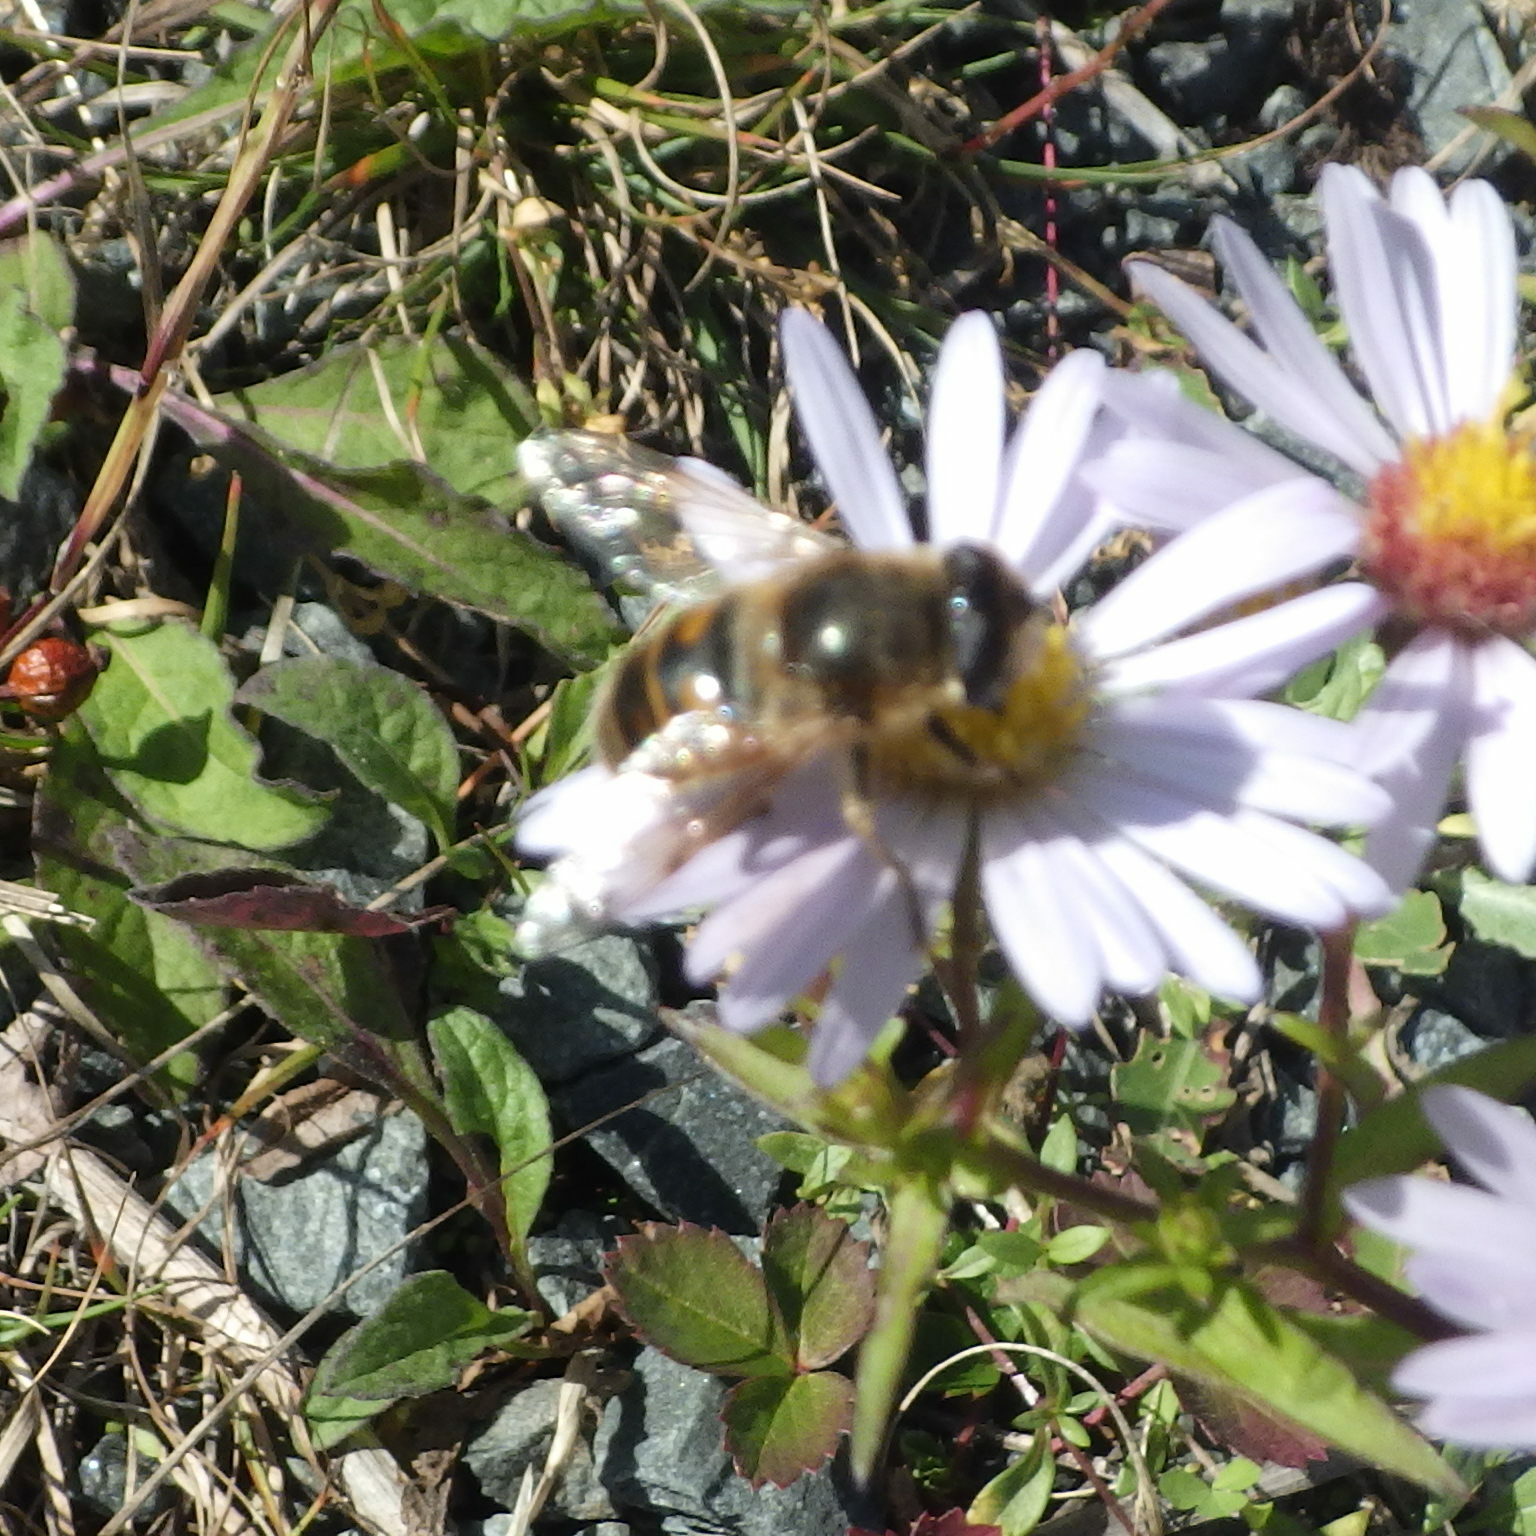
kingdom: Animalia
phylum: Arthropoda
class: Insecta
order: Diptera
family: Syrphidae
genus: Eristalis
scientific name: Eristalis tenax
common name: Drone fly
